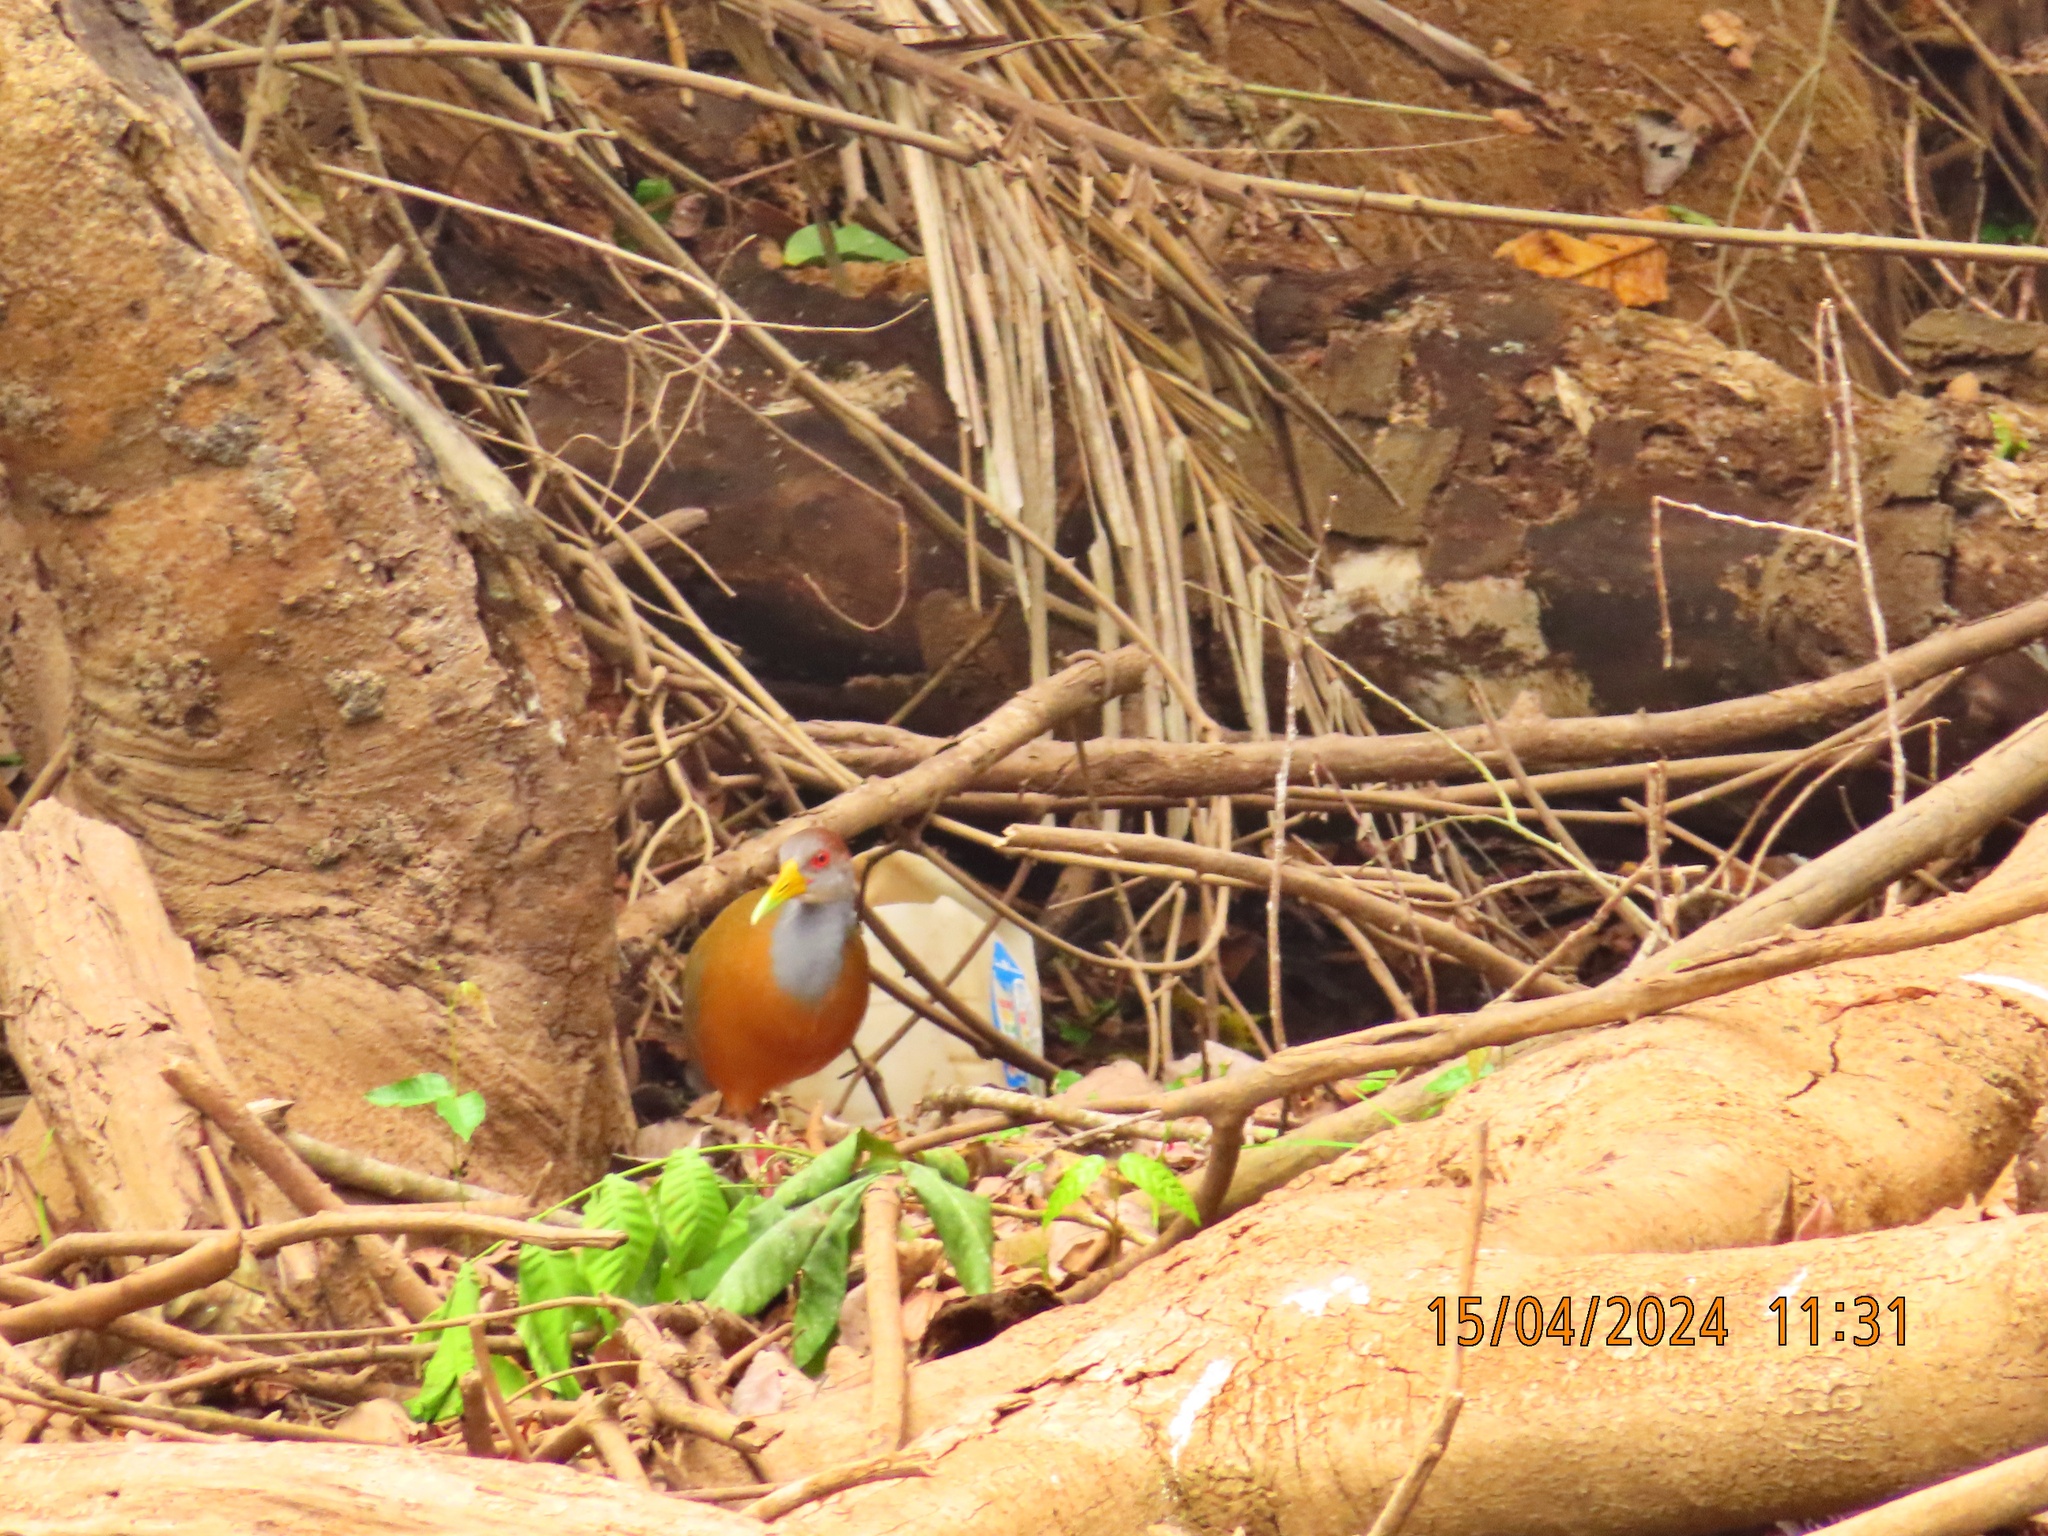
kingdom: Animalia
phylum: Chordata
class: Aves
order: Gruiformes
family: Rallidae
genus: Aramides
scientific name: Aramides albiventris
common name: Russet-naped wood-rail
